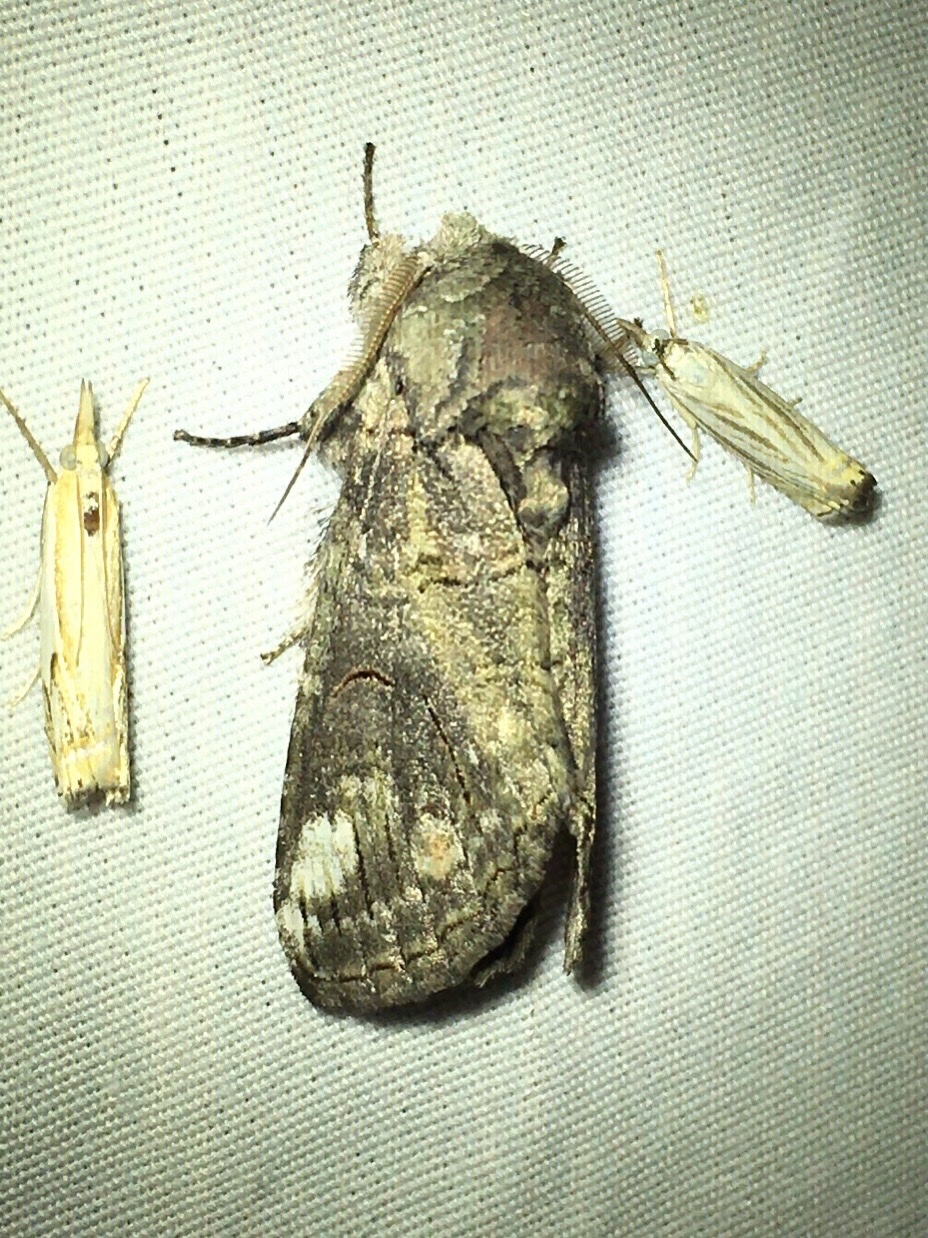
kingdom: Animalia
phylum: Arthropoda
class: Insecta
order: Lepidoptera
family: Notodontidae
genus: Heterocampa
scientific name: Heterocampa obliqua
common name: Oblique heterocampa
